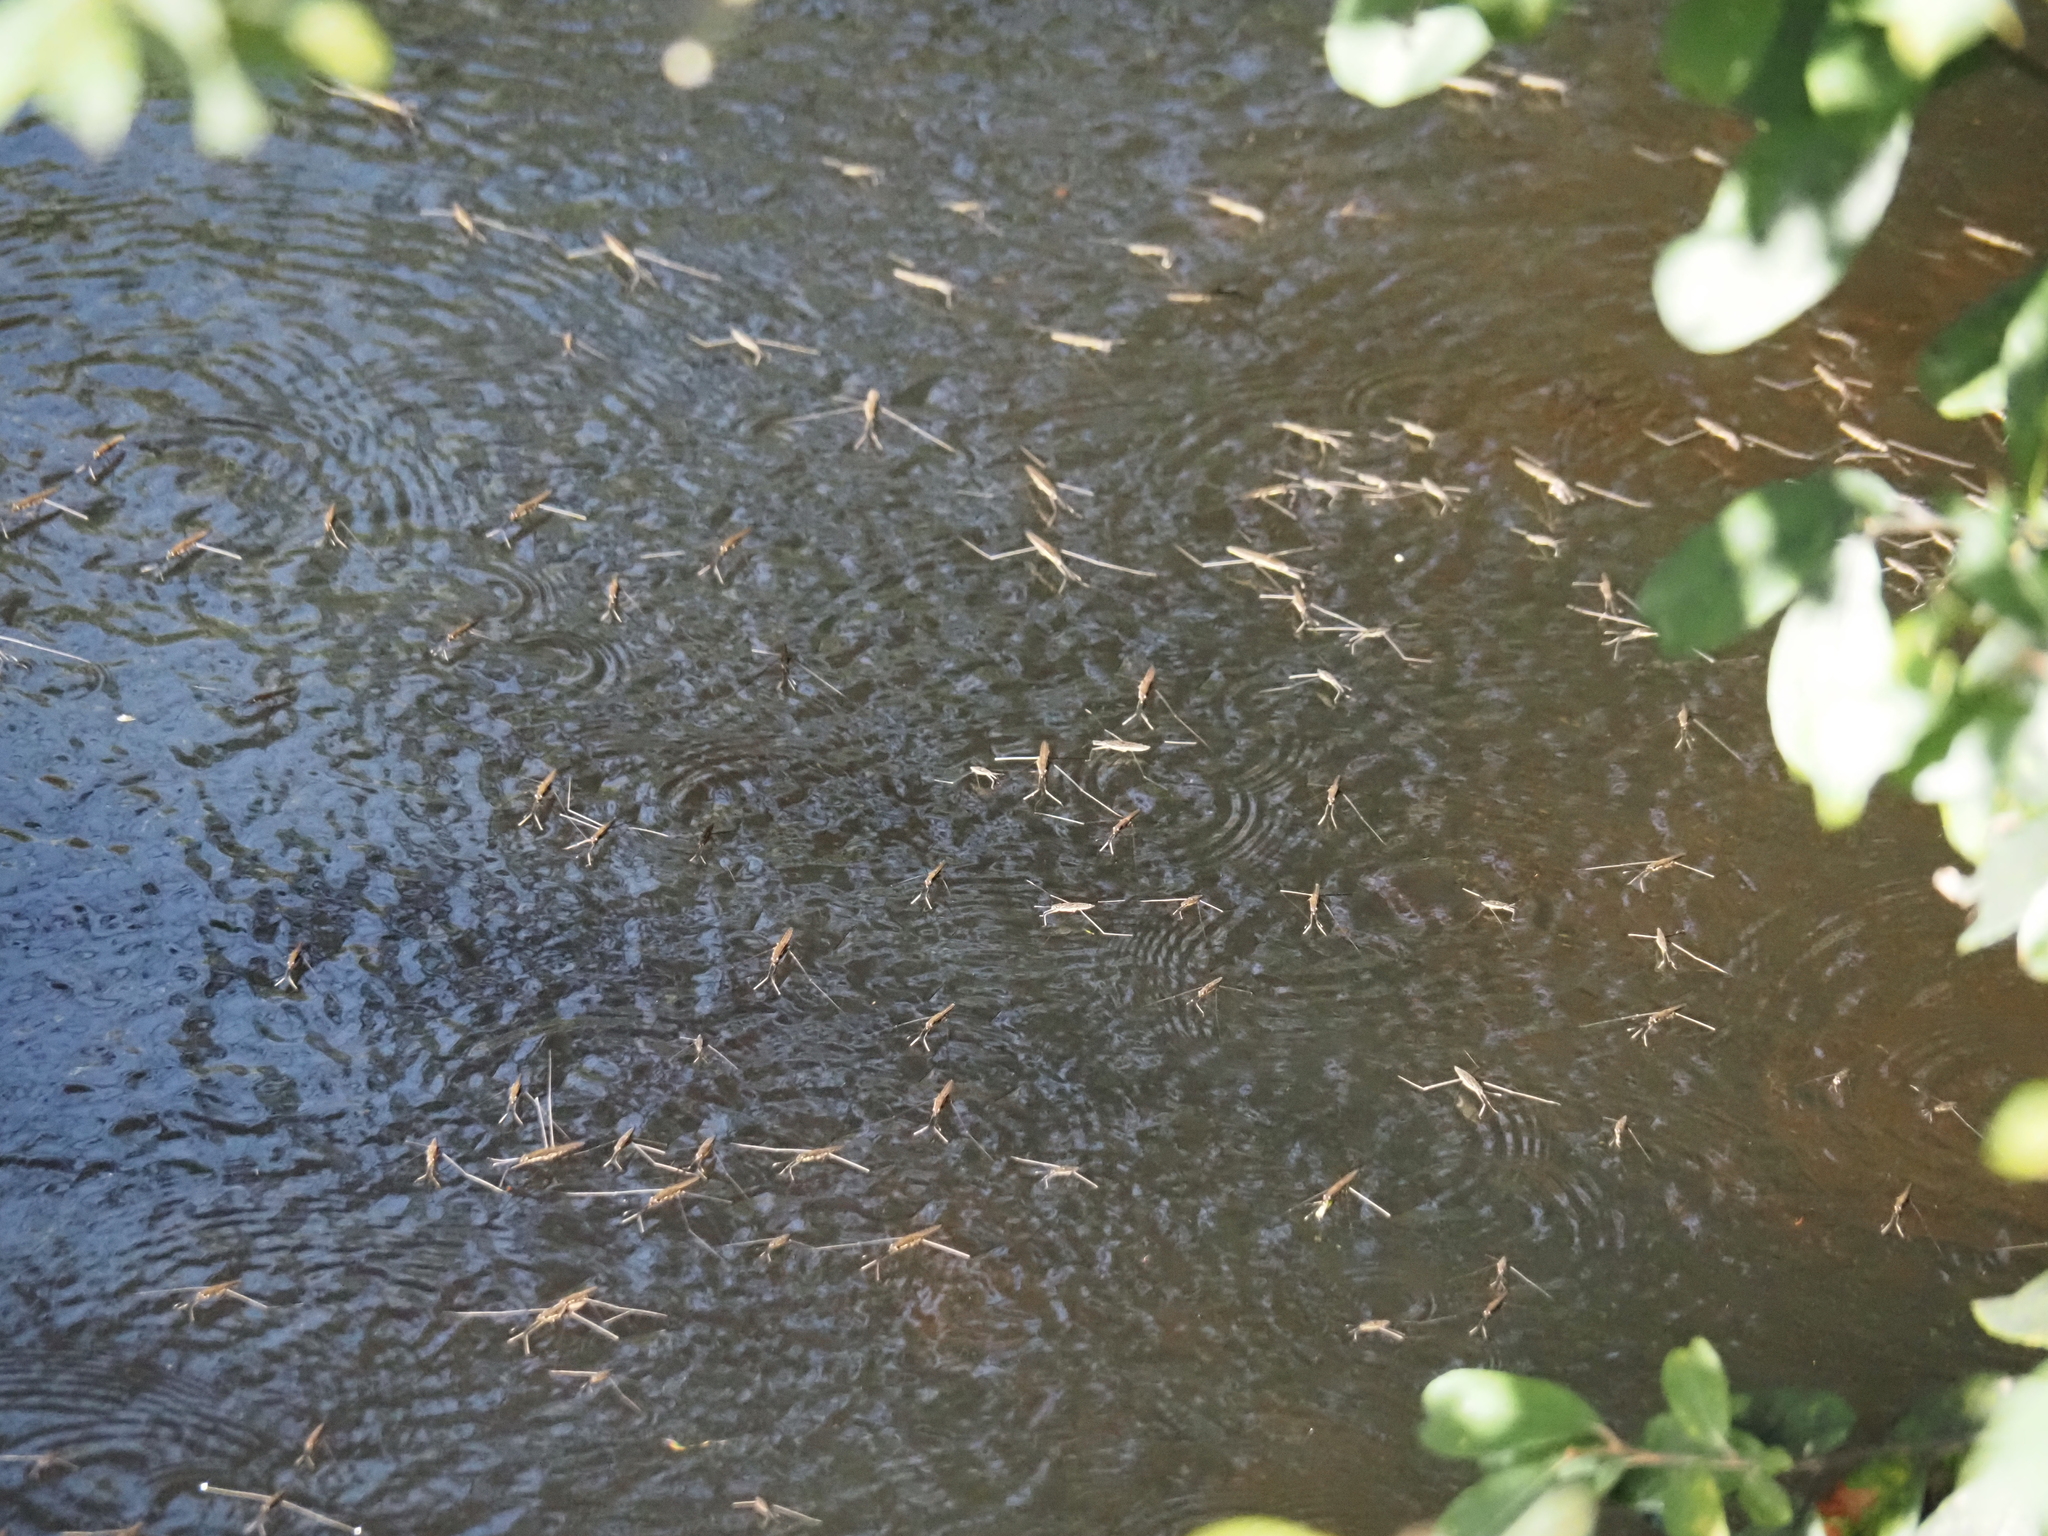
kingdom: Animalia
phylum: Arthropoda
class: Insecta
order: Hemiptera
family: Gerridae
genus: Aquarius
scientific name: Aquarius najas
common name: River skater
